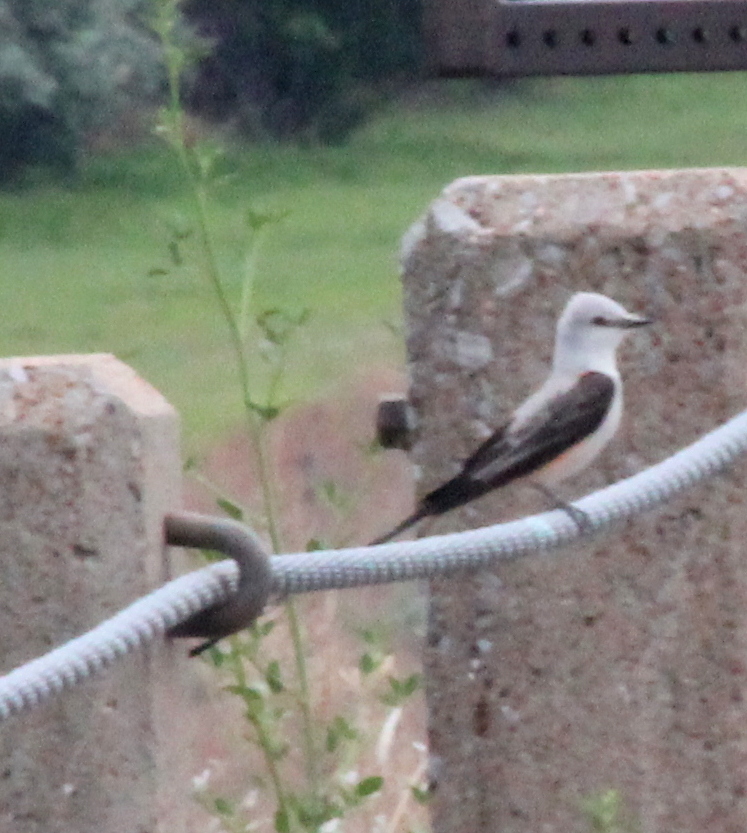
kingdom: Animalia
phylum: Chordata
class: Aves
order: Passeriformes
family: Tyrannidae
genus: Tyrannus
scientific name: Tyrannus forficatus
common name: Scissor-tailed flycatcher
